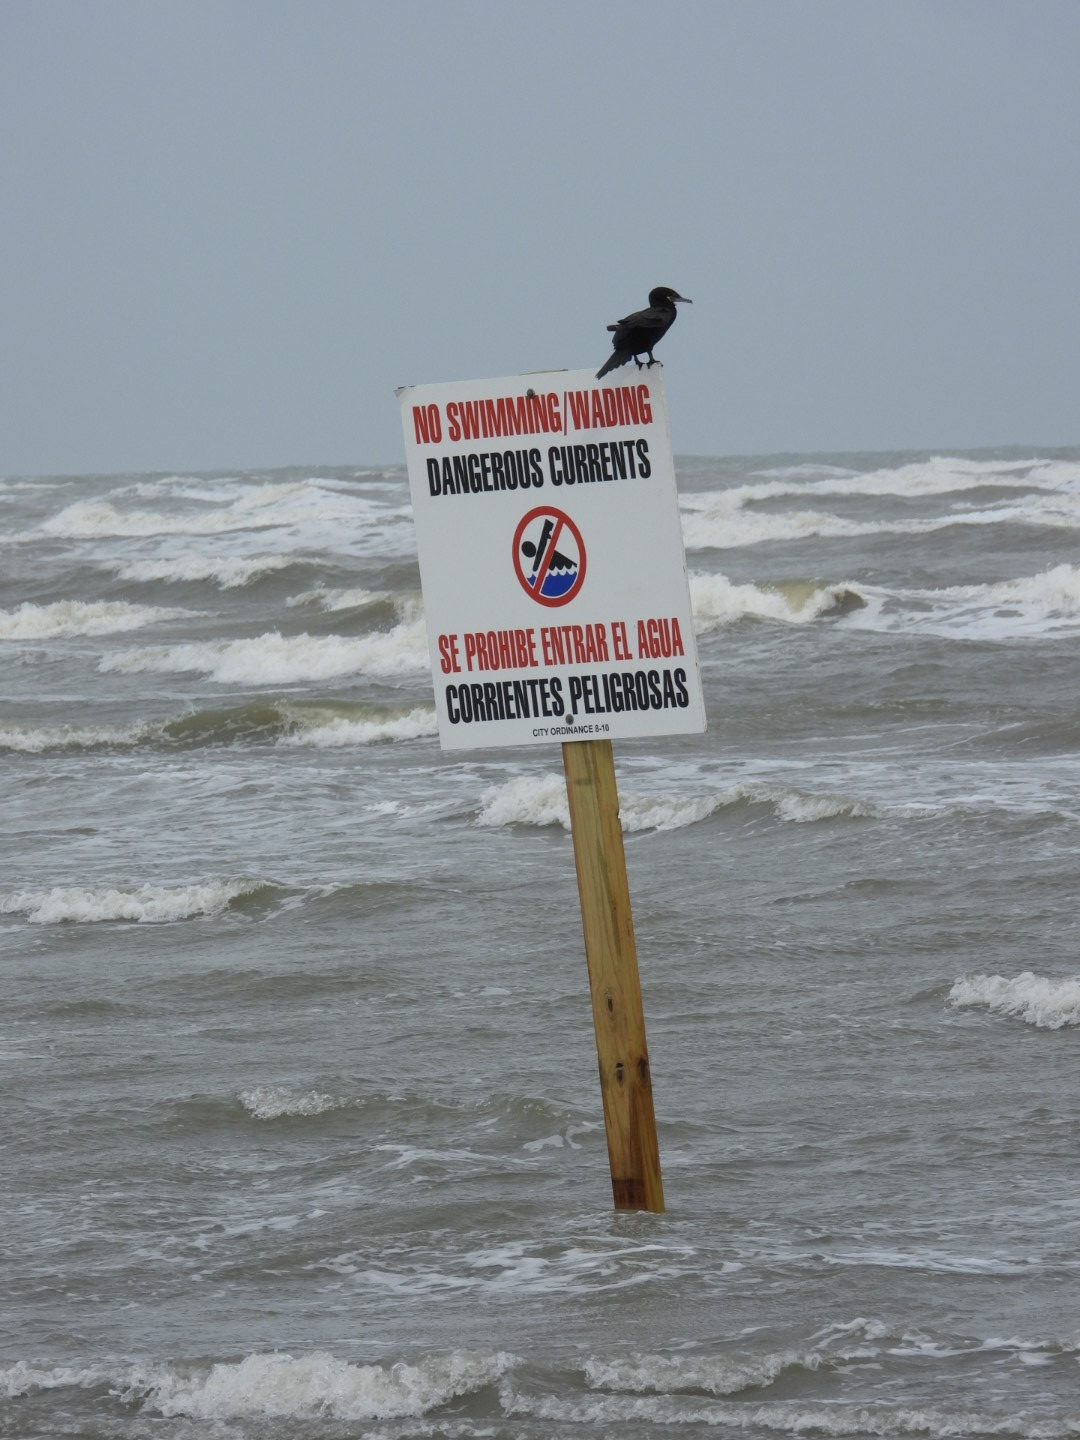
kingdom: Animalia
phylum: Chordata
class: Aves
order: Suliformes
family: Phalacrocoracidae
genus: Phalacrocorax
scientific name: Phalacrocorax brasilianus
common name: Neotropic cormorant
